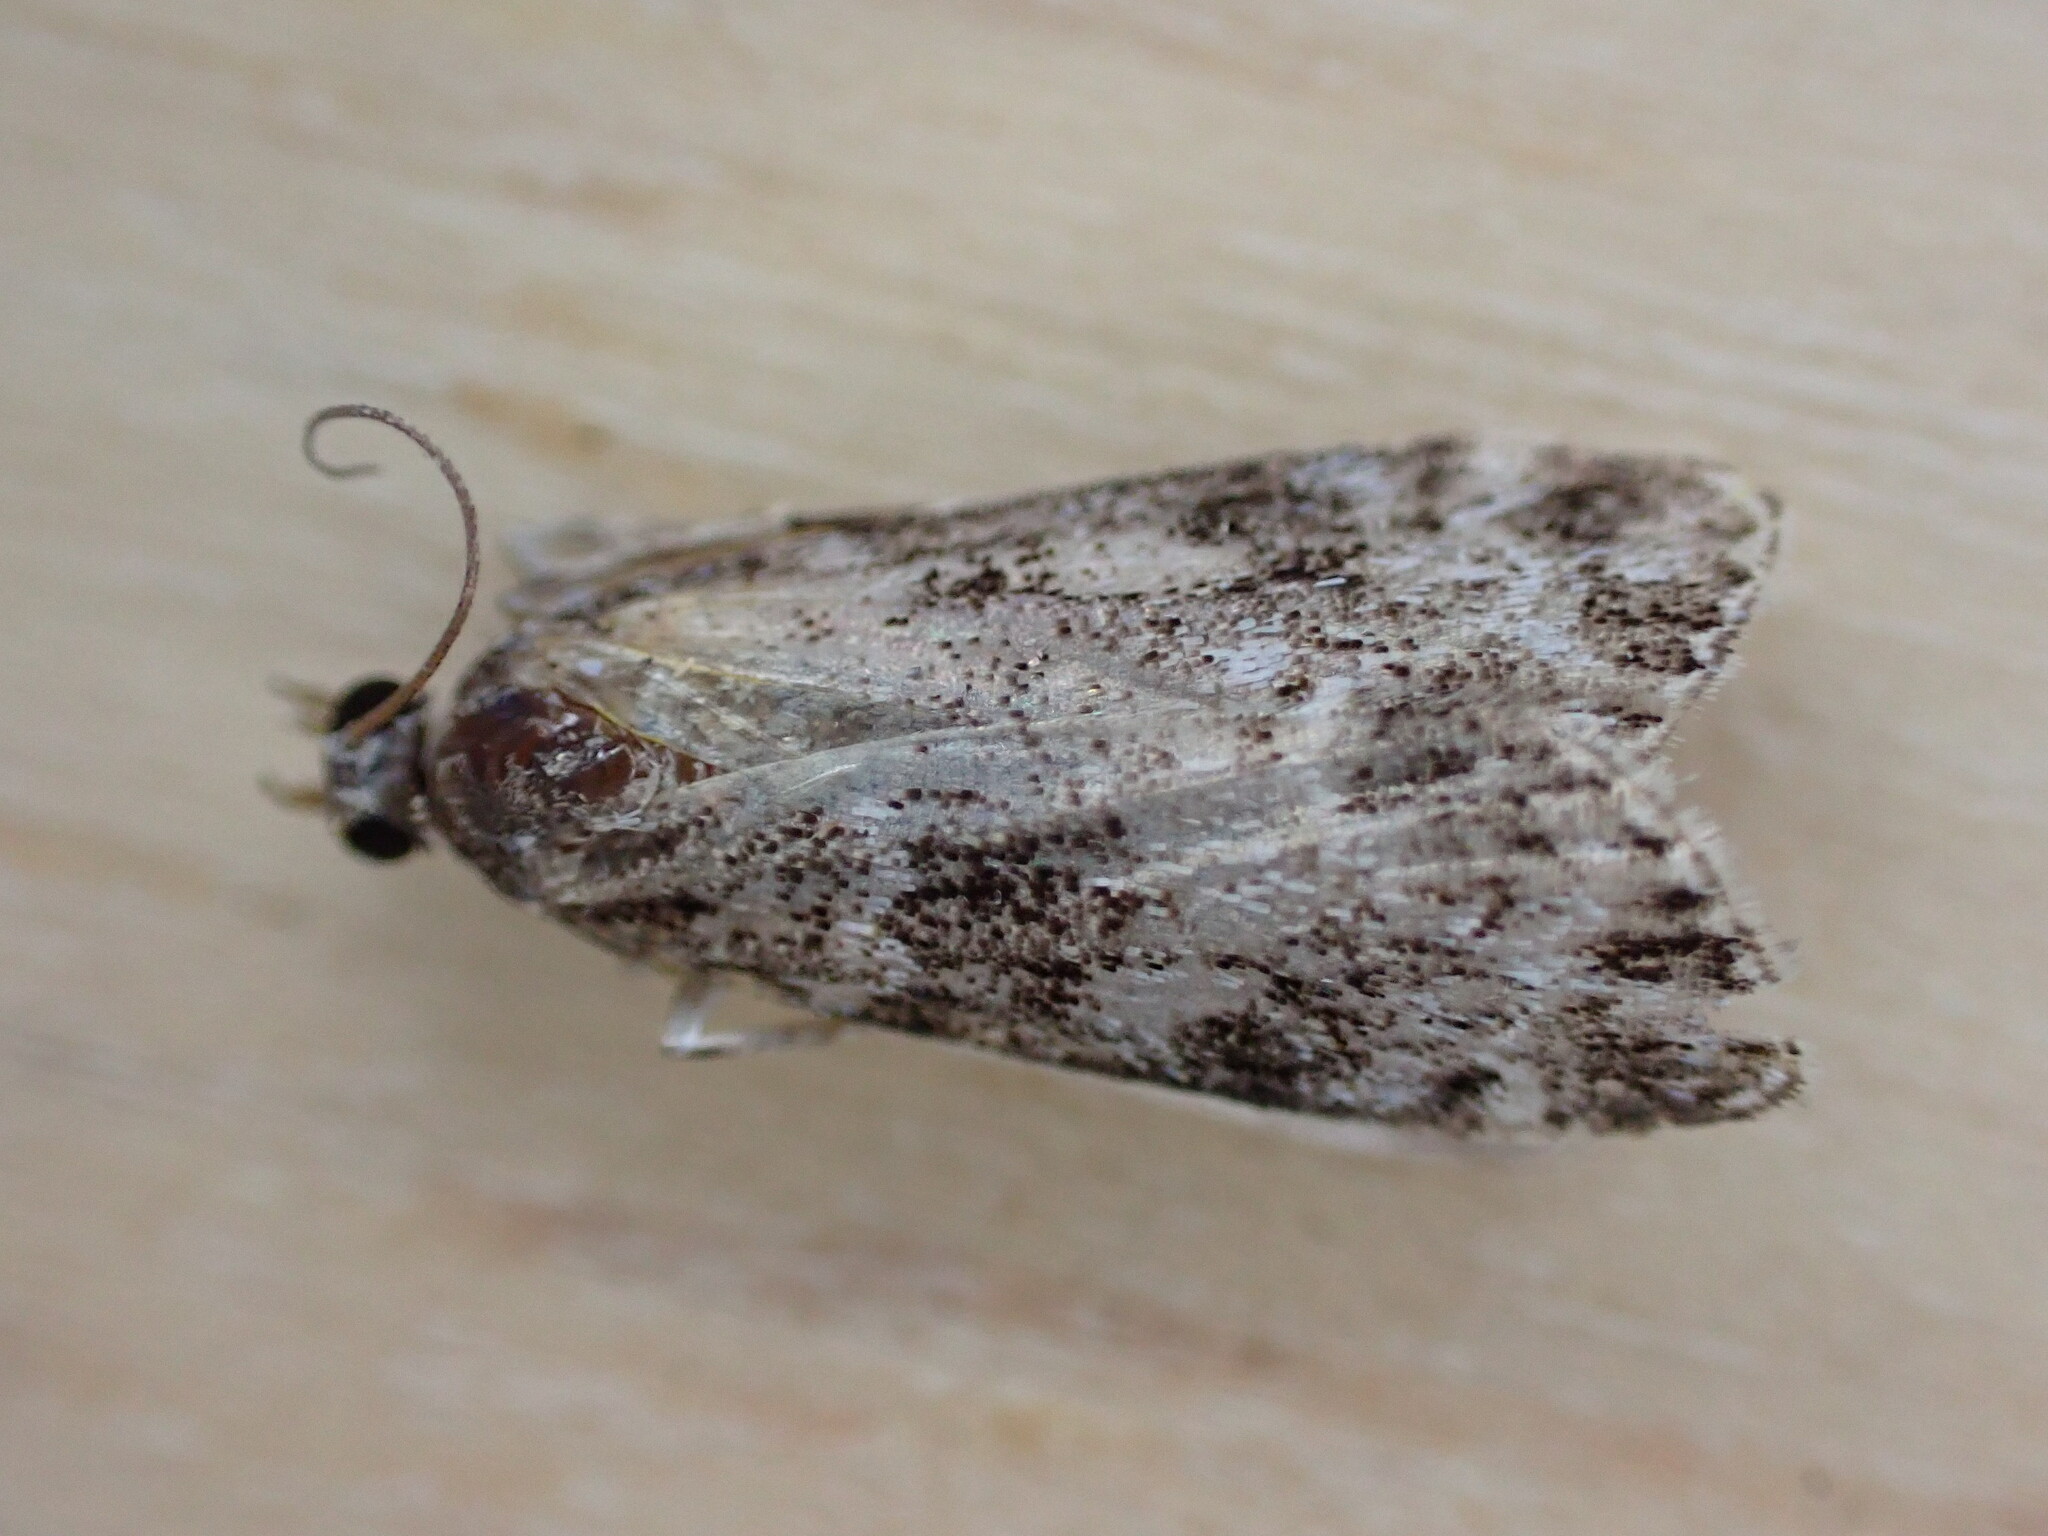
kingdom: Animalia
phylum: Arthropoda
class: Insecta
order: Lepidoptera
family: Crambidae
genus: Eudonia
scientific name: Eudonia mercurella
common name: Small grey
